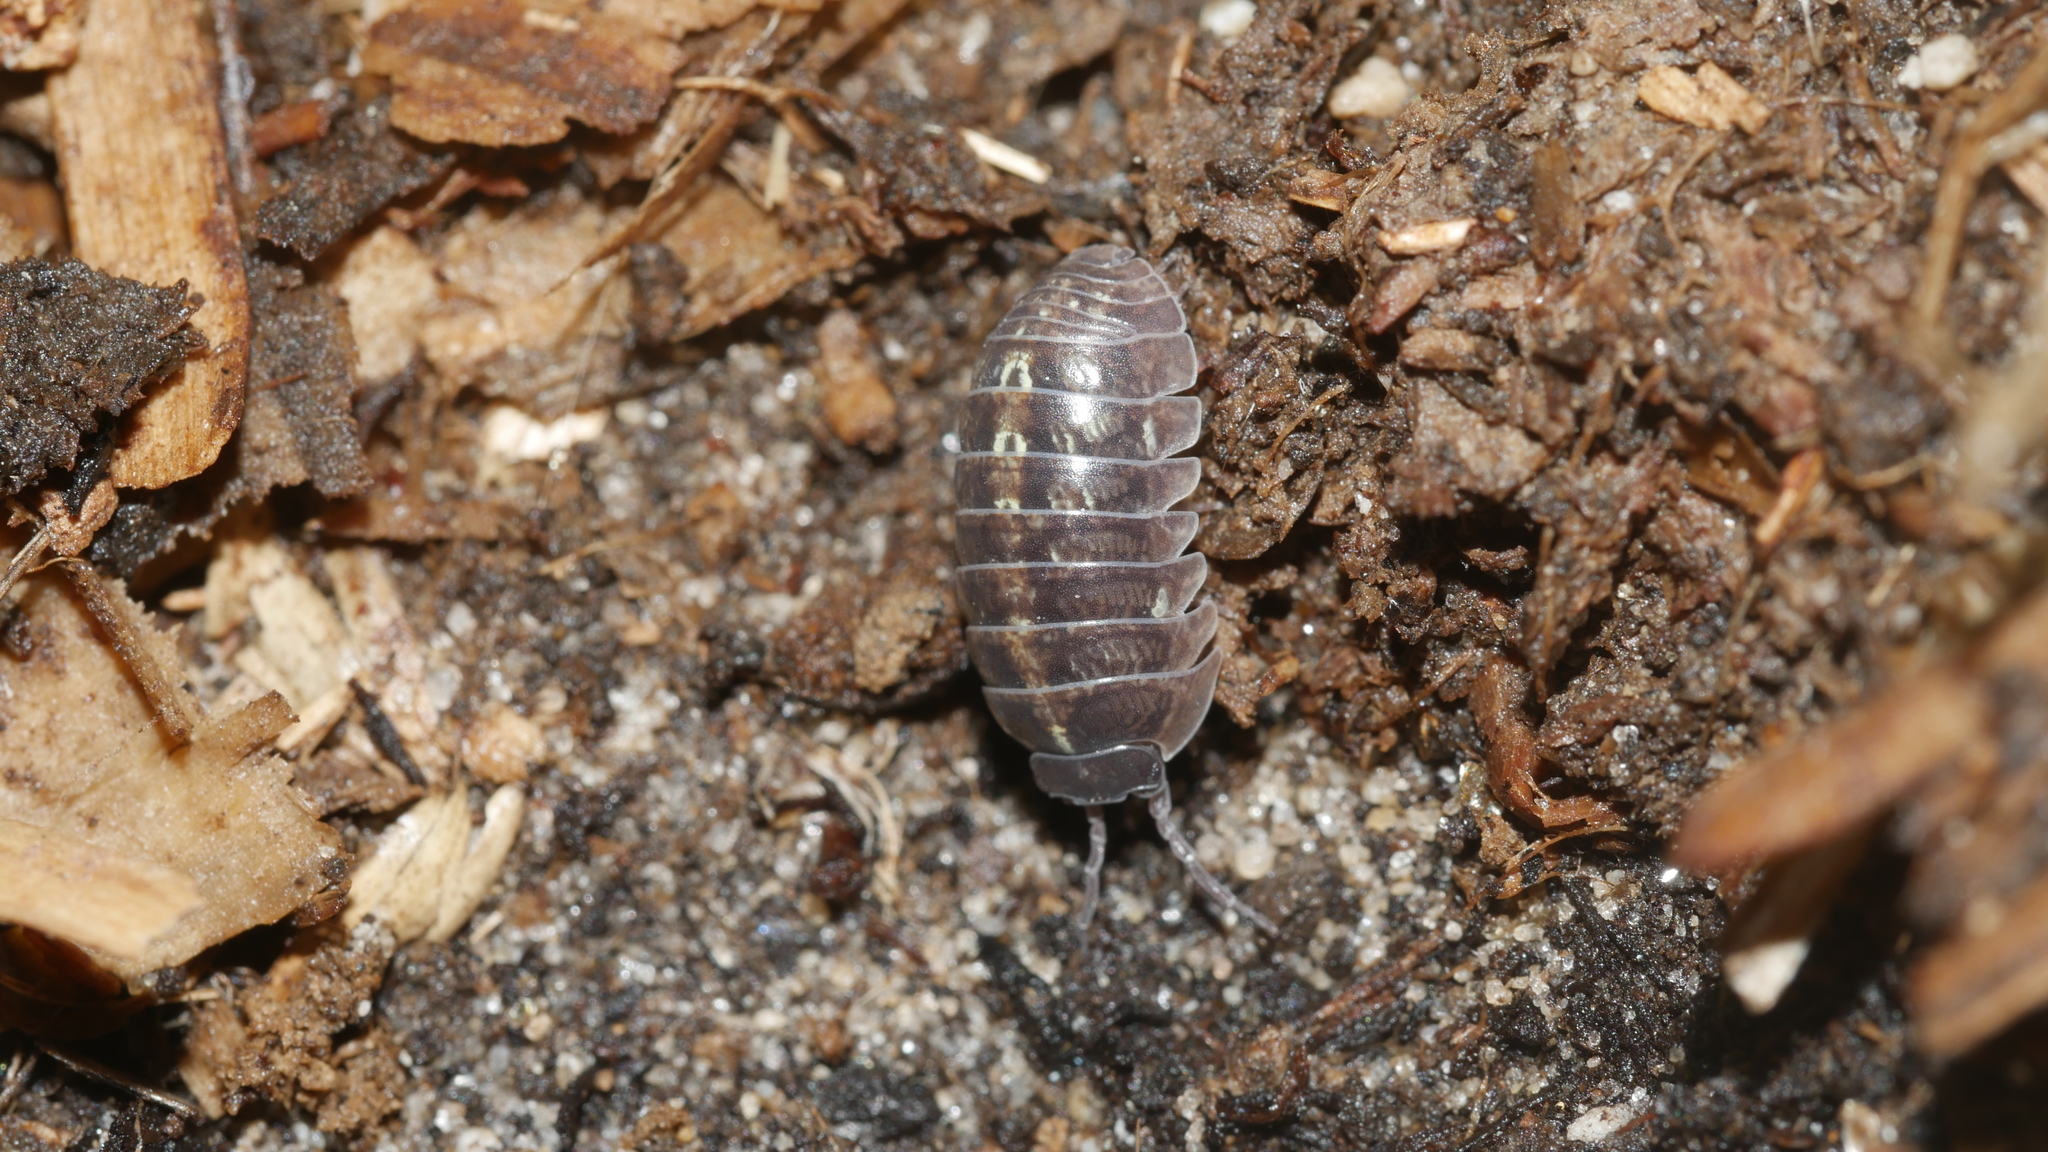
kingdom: Animalia
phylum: Arthropoda
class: Malacostraca
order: Isopoda
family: Armadillidiidae
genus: Armadillidium
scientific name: Armadillidium vulgare
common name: Common pill woodlouse
